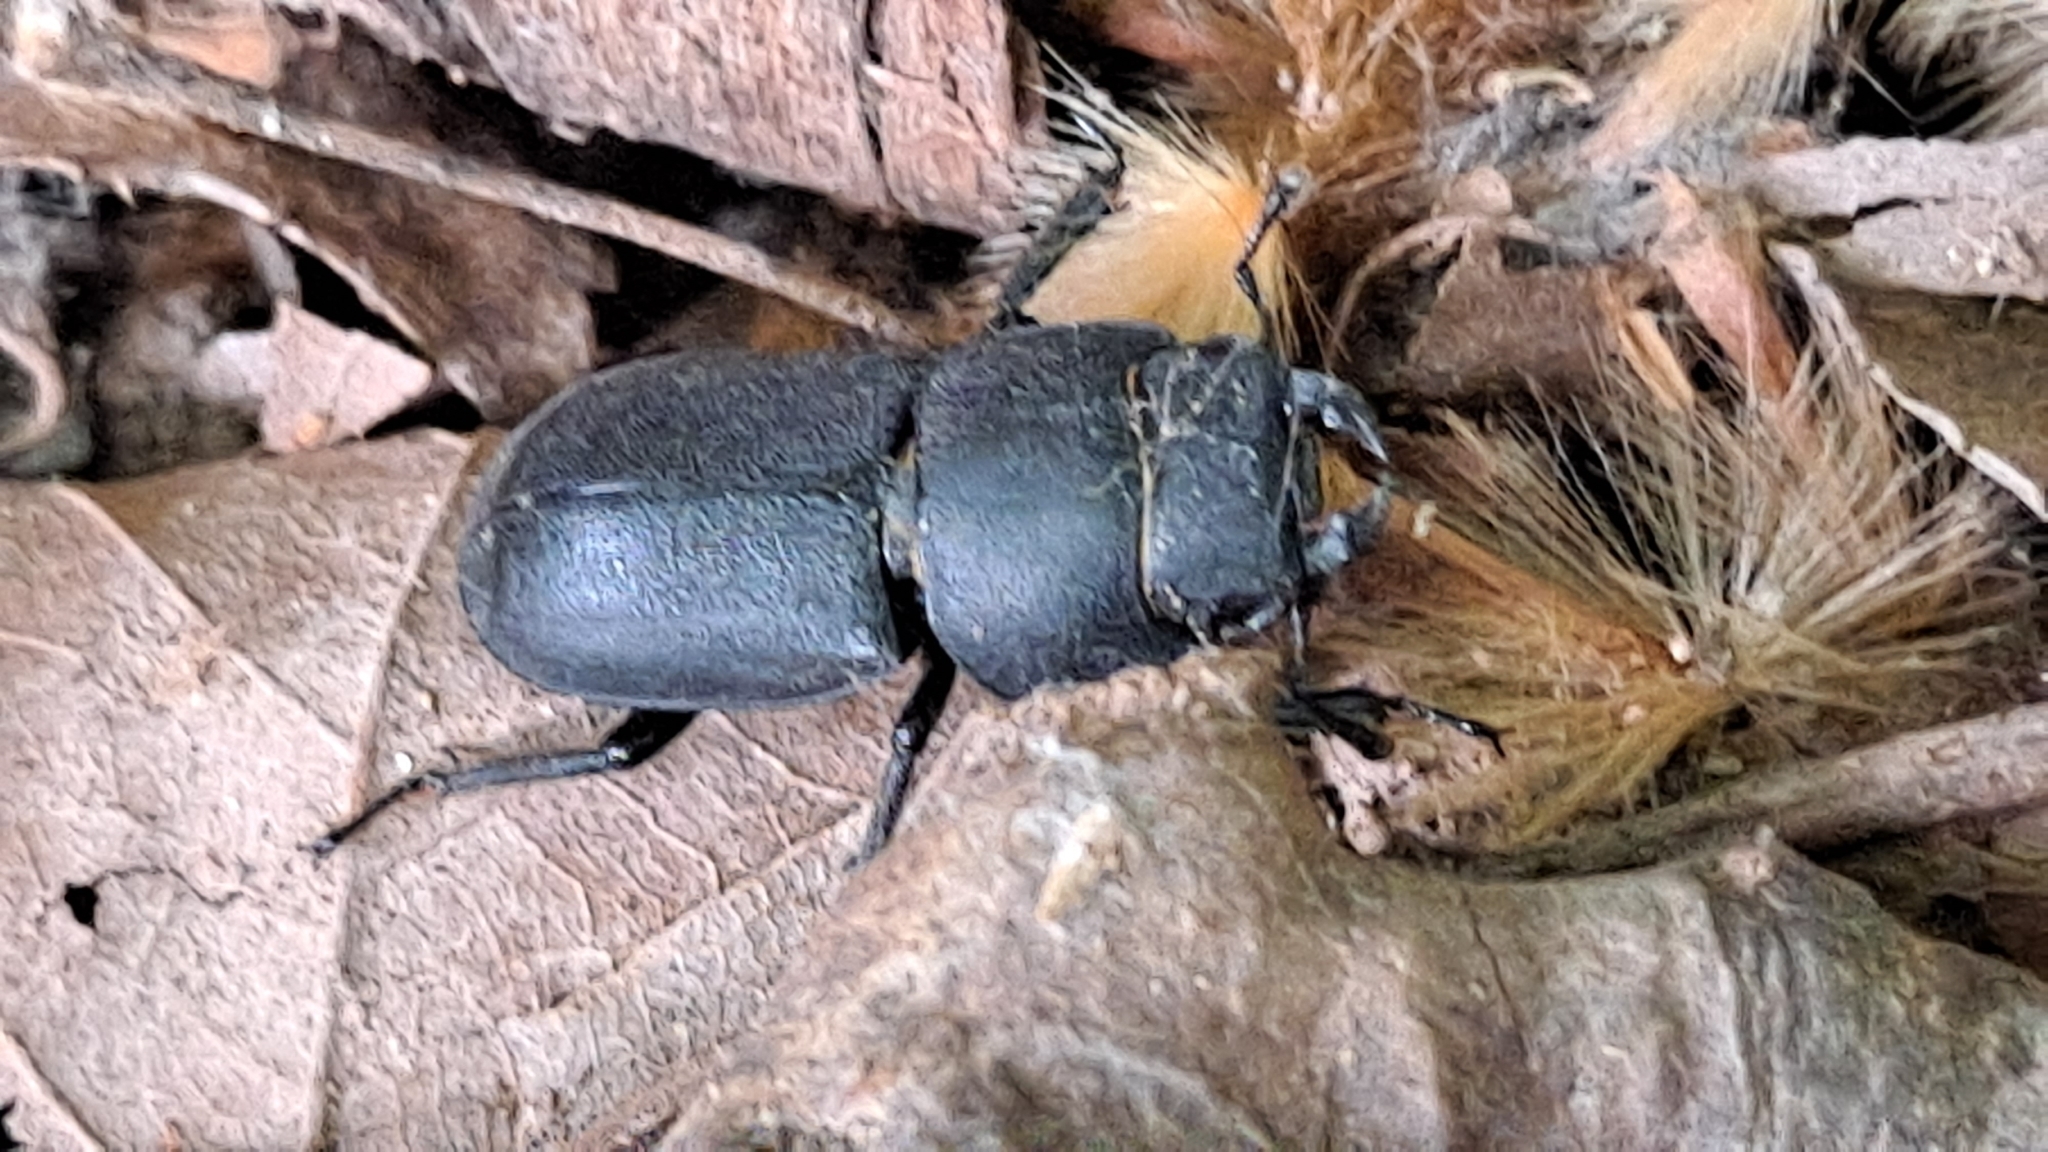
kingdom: Animalia
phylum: Arthropoda
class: Insecta
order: Coleoptera
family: Lucanidae
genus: Dorcus
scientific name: Dorcus parallelipipedus
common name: Lesser stag beetle
